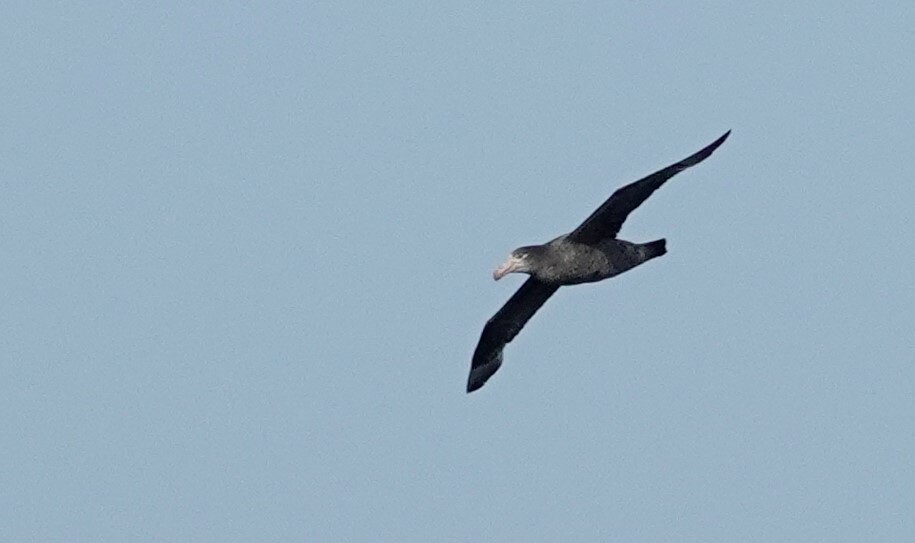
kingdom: Animalia
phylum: Chordata
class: Aves
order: Procellariiformes
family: Procellariidae
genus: Macronectes
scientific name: Macronectes halli
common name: Northern giant petrel
